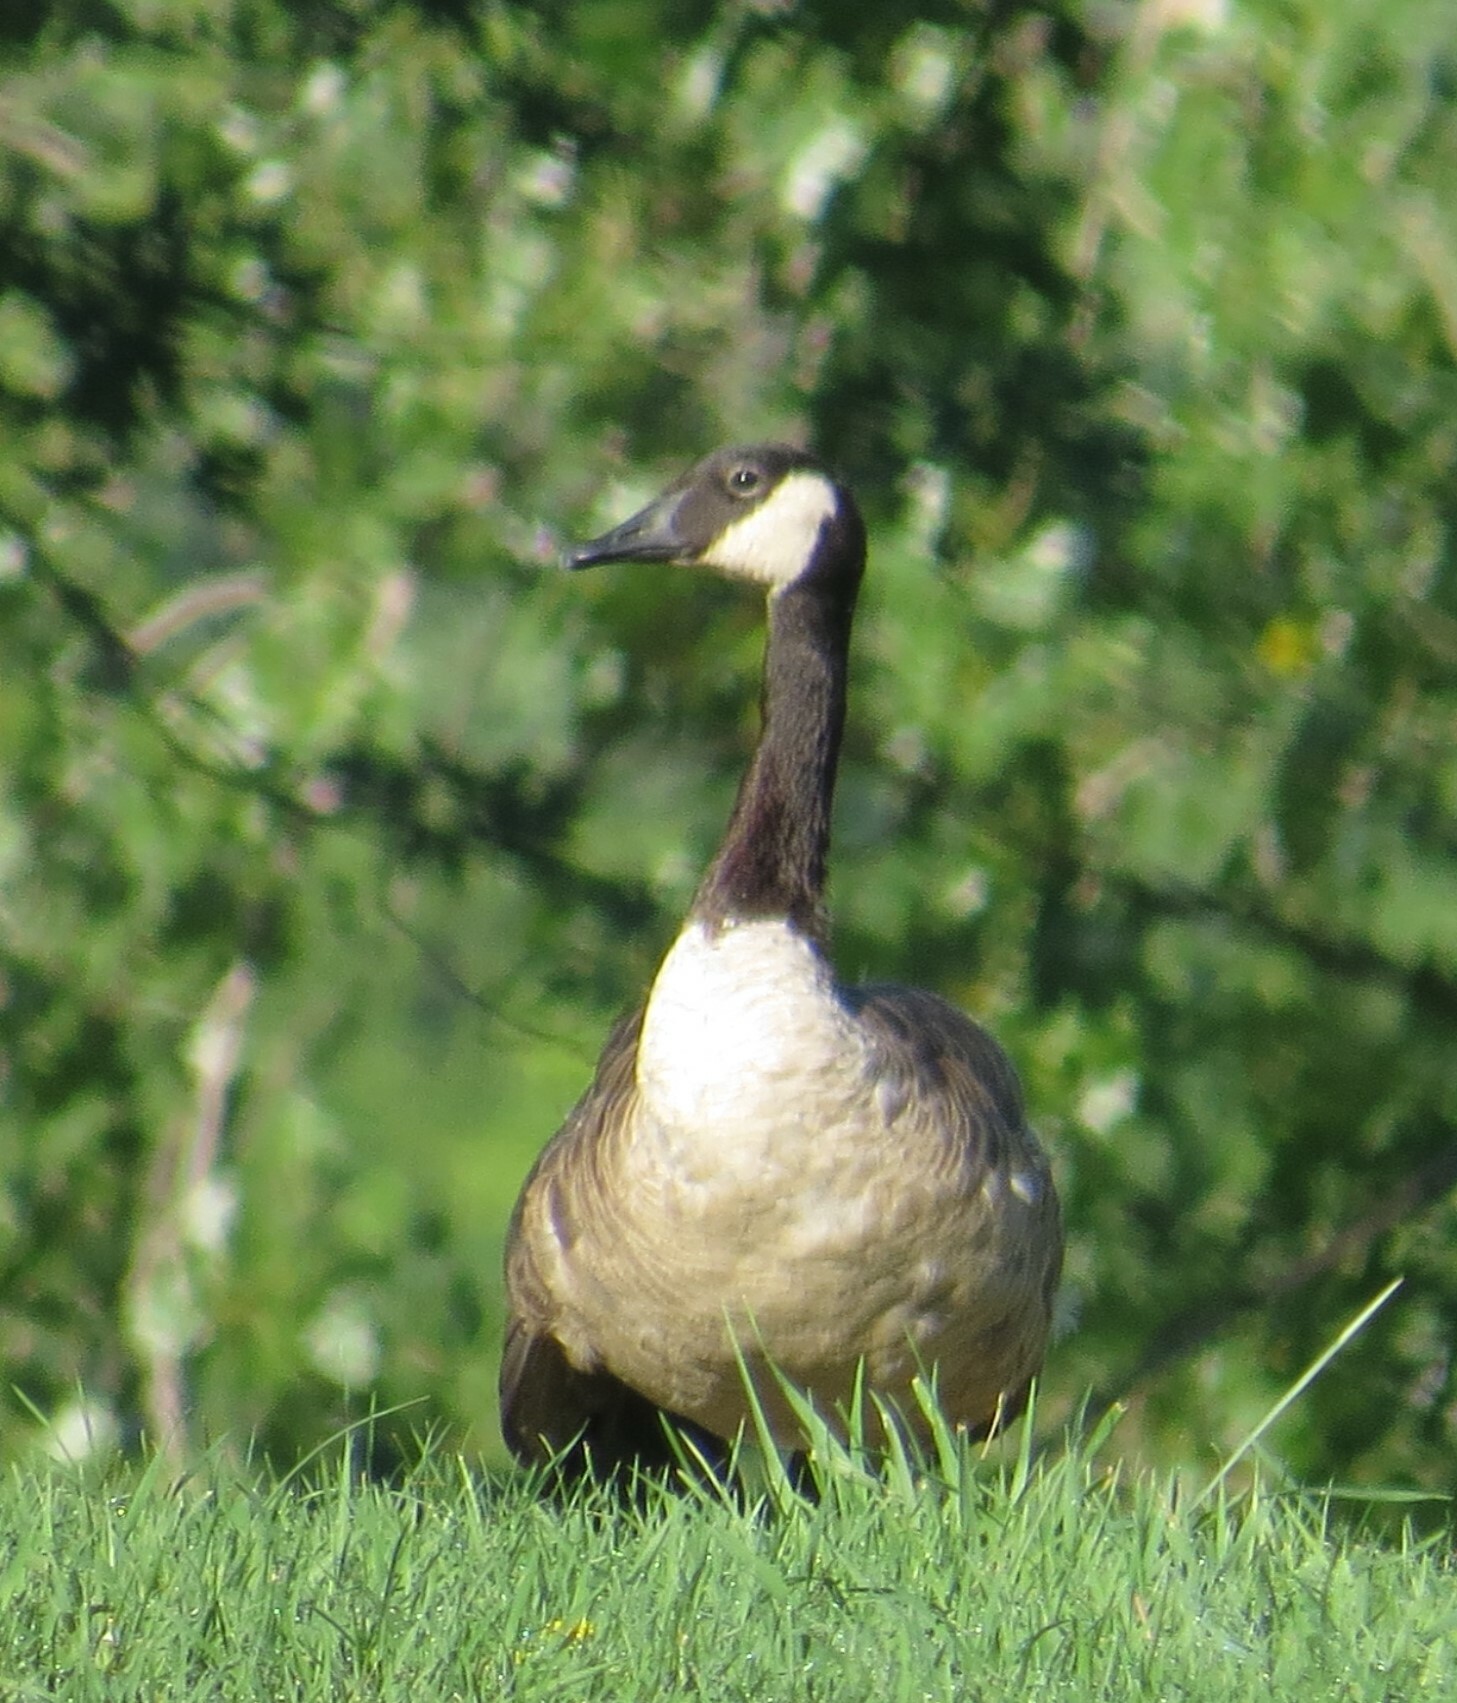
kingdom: Animalia
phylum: Chordata
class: Aves
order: Anseriformes
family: Anatidae
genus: Branta
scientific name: Branta canadensis
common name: Canada goose
